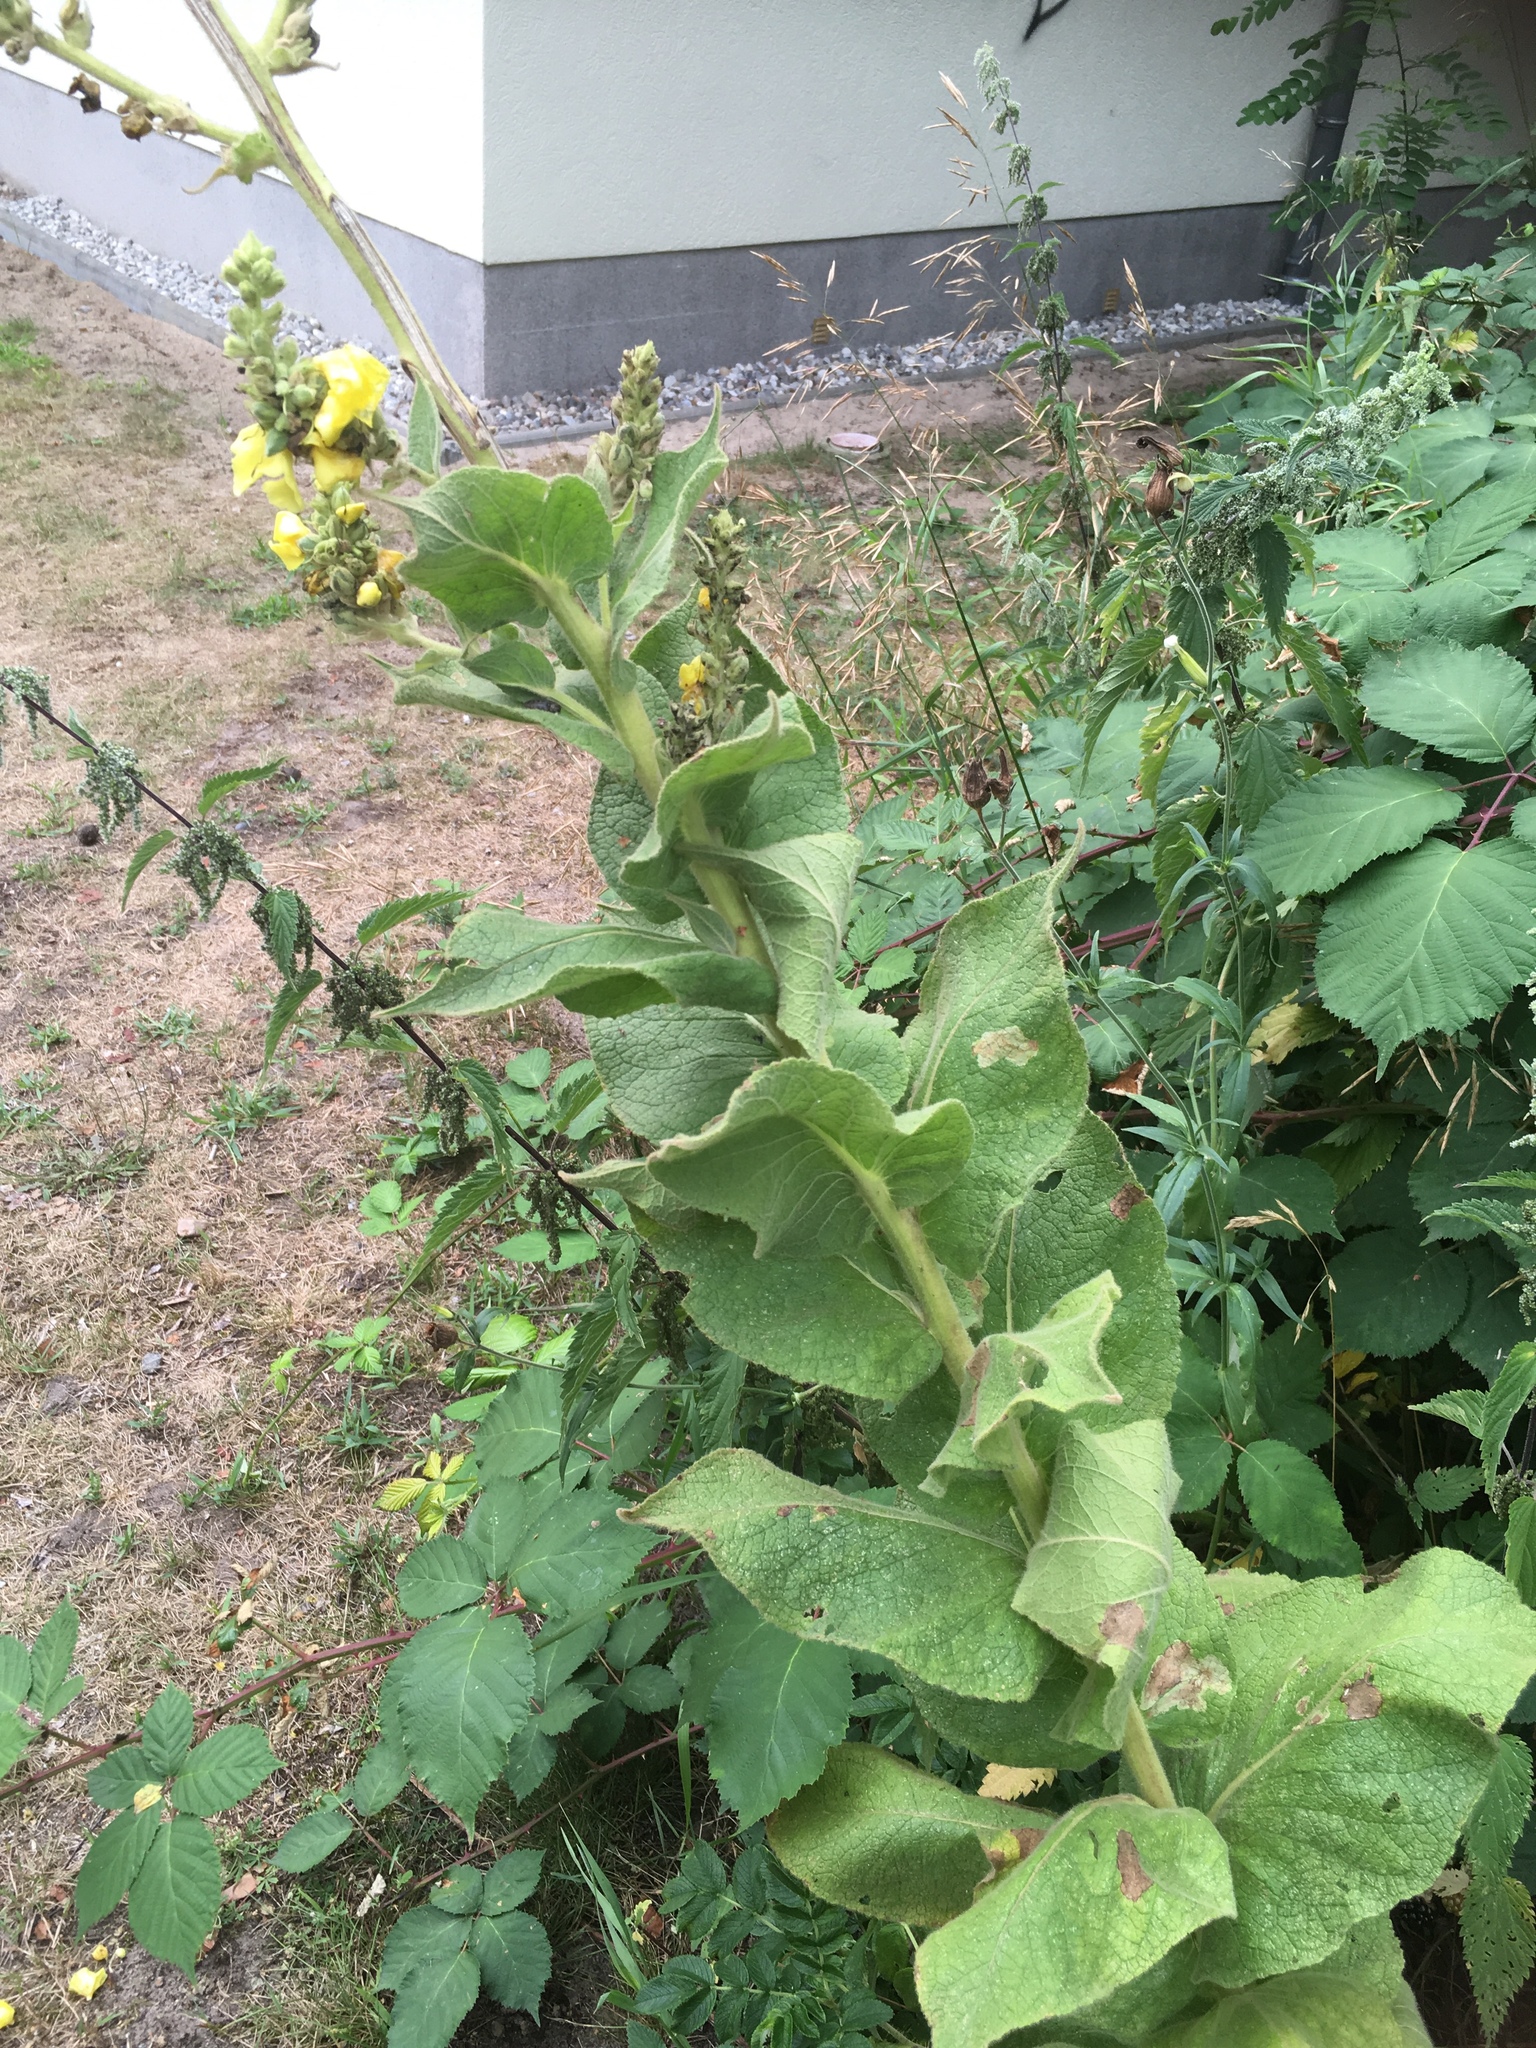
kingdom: Plantae
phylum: Tracheophyta
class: Magnoliopsida
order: Lamiales
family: Scrophulariaceae
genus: Verbascum
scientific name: Verbascum phlomoides
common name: Orange mullein
